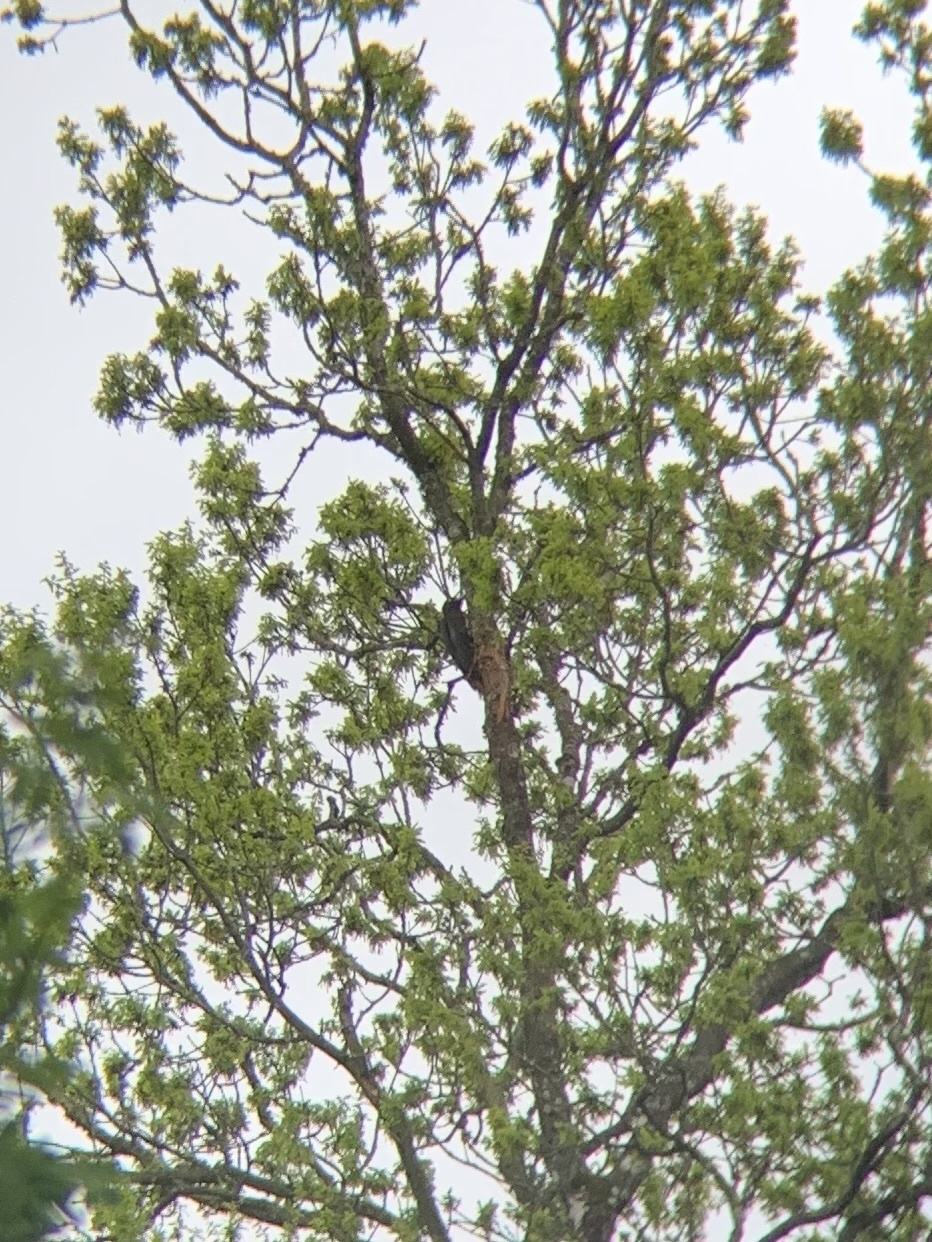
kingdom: Animalia
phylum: Chordata
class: Aves
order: Piciformes
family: Picidae
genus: Dryocopus
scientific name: Dryocopus martius
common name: Black woodpecker
